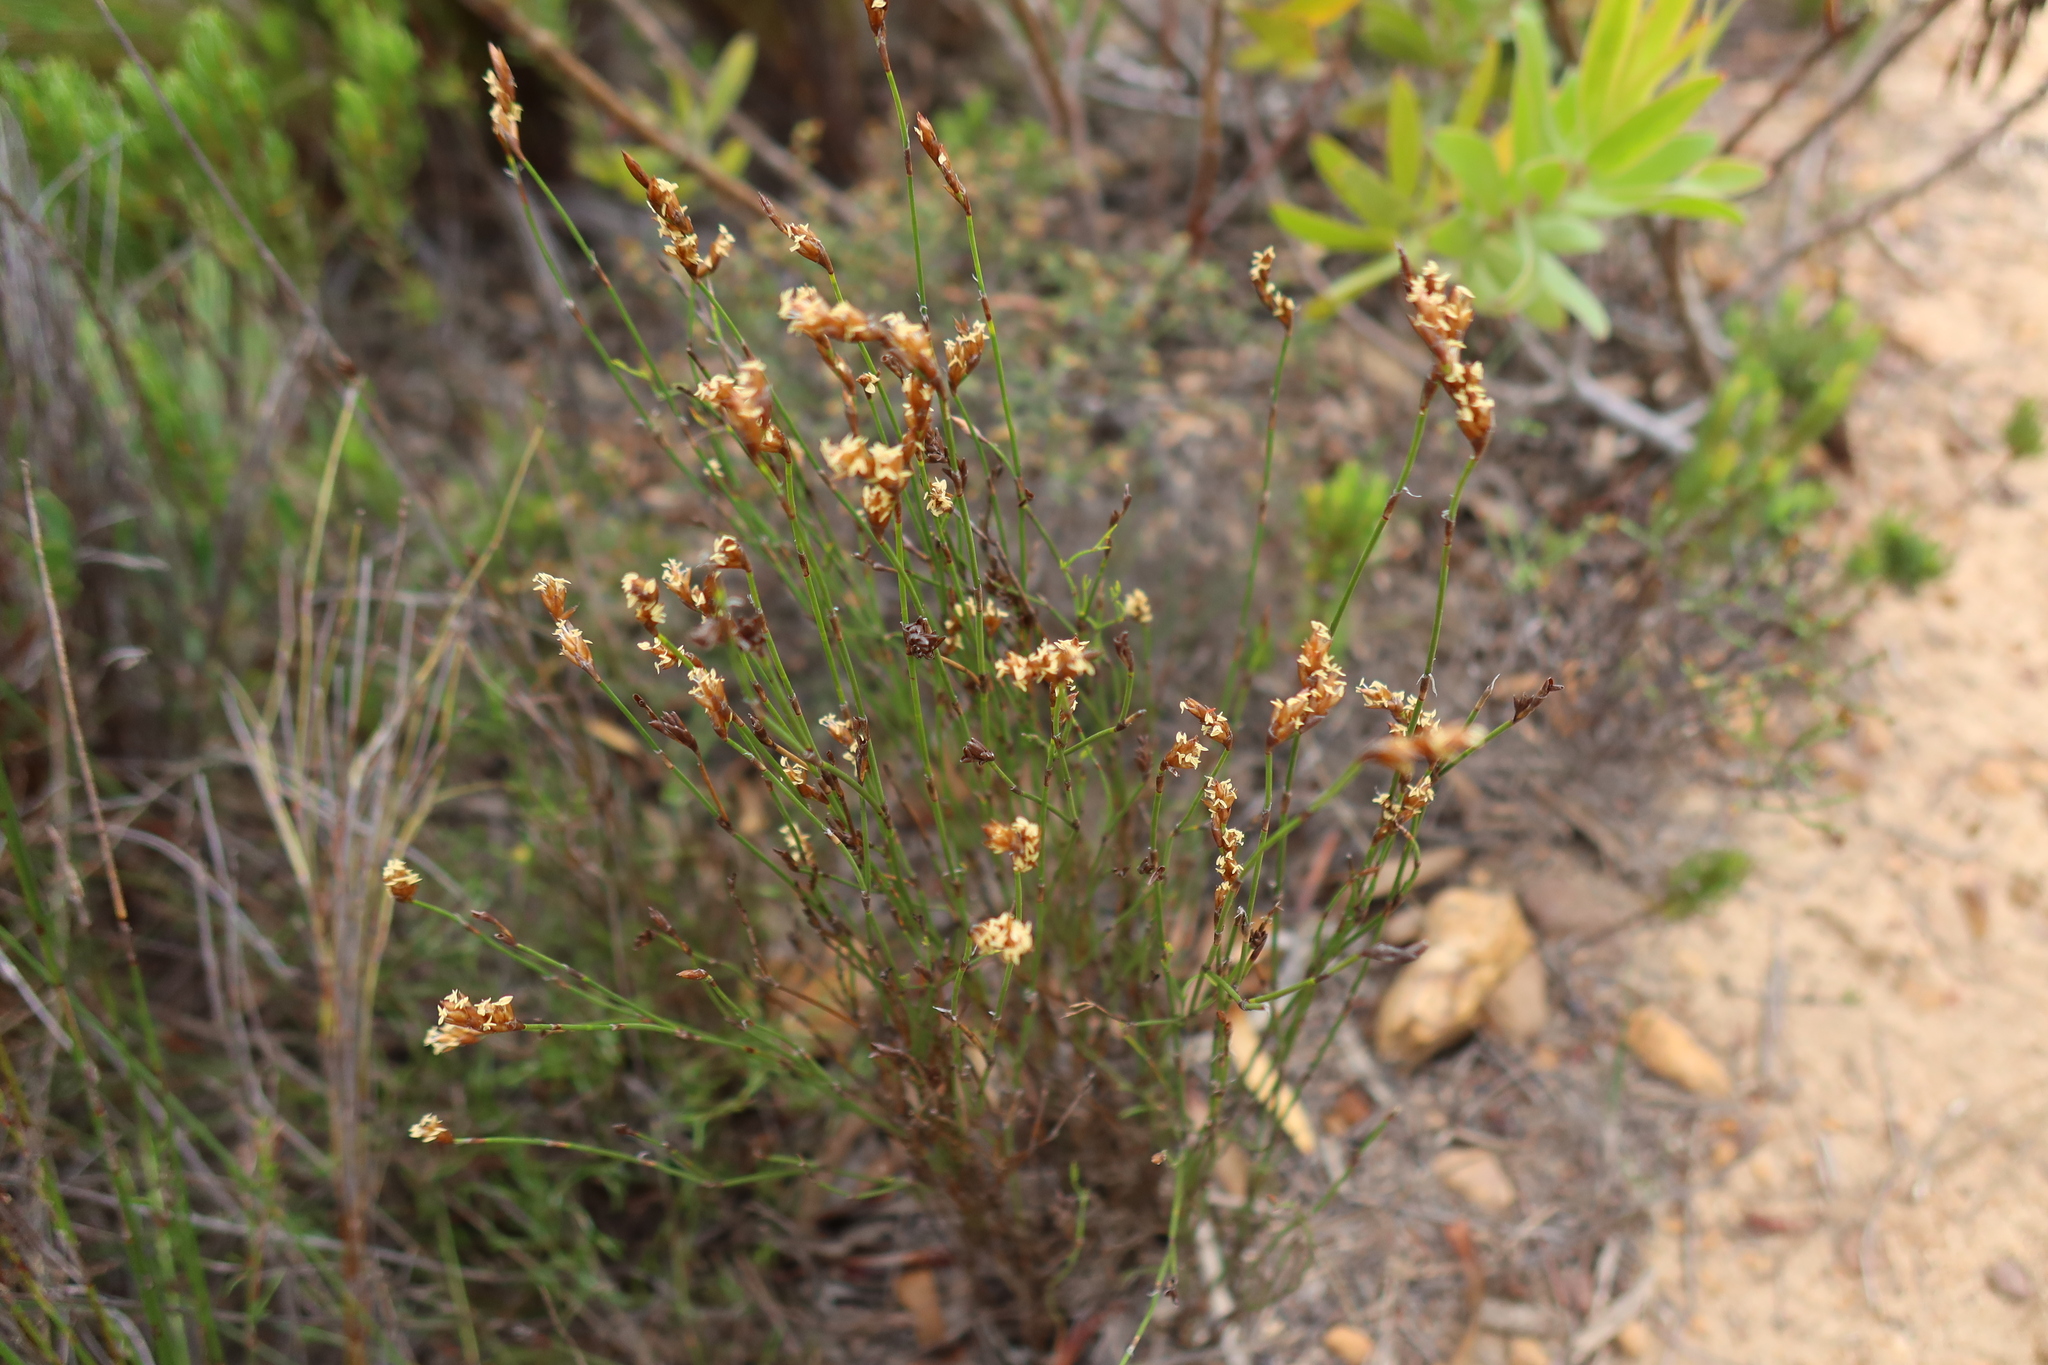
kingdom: Plantae
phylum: Tracheophyta
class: Liliopsida
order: Poales
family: Restionaceae
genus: Restio
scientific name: Restio triticeus
